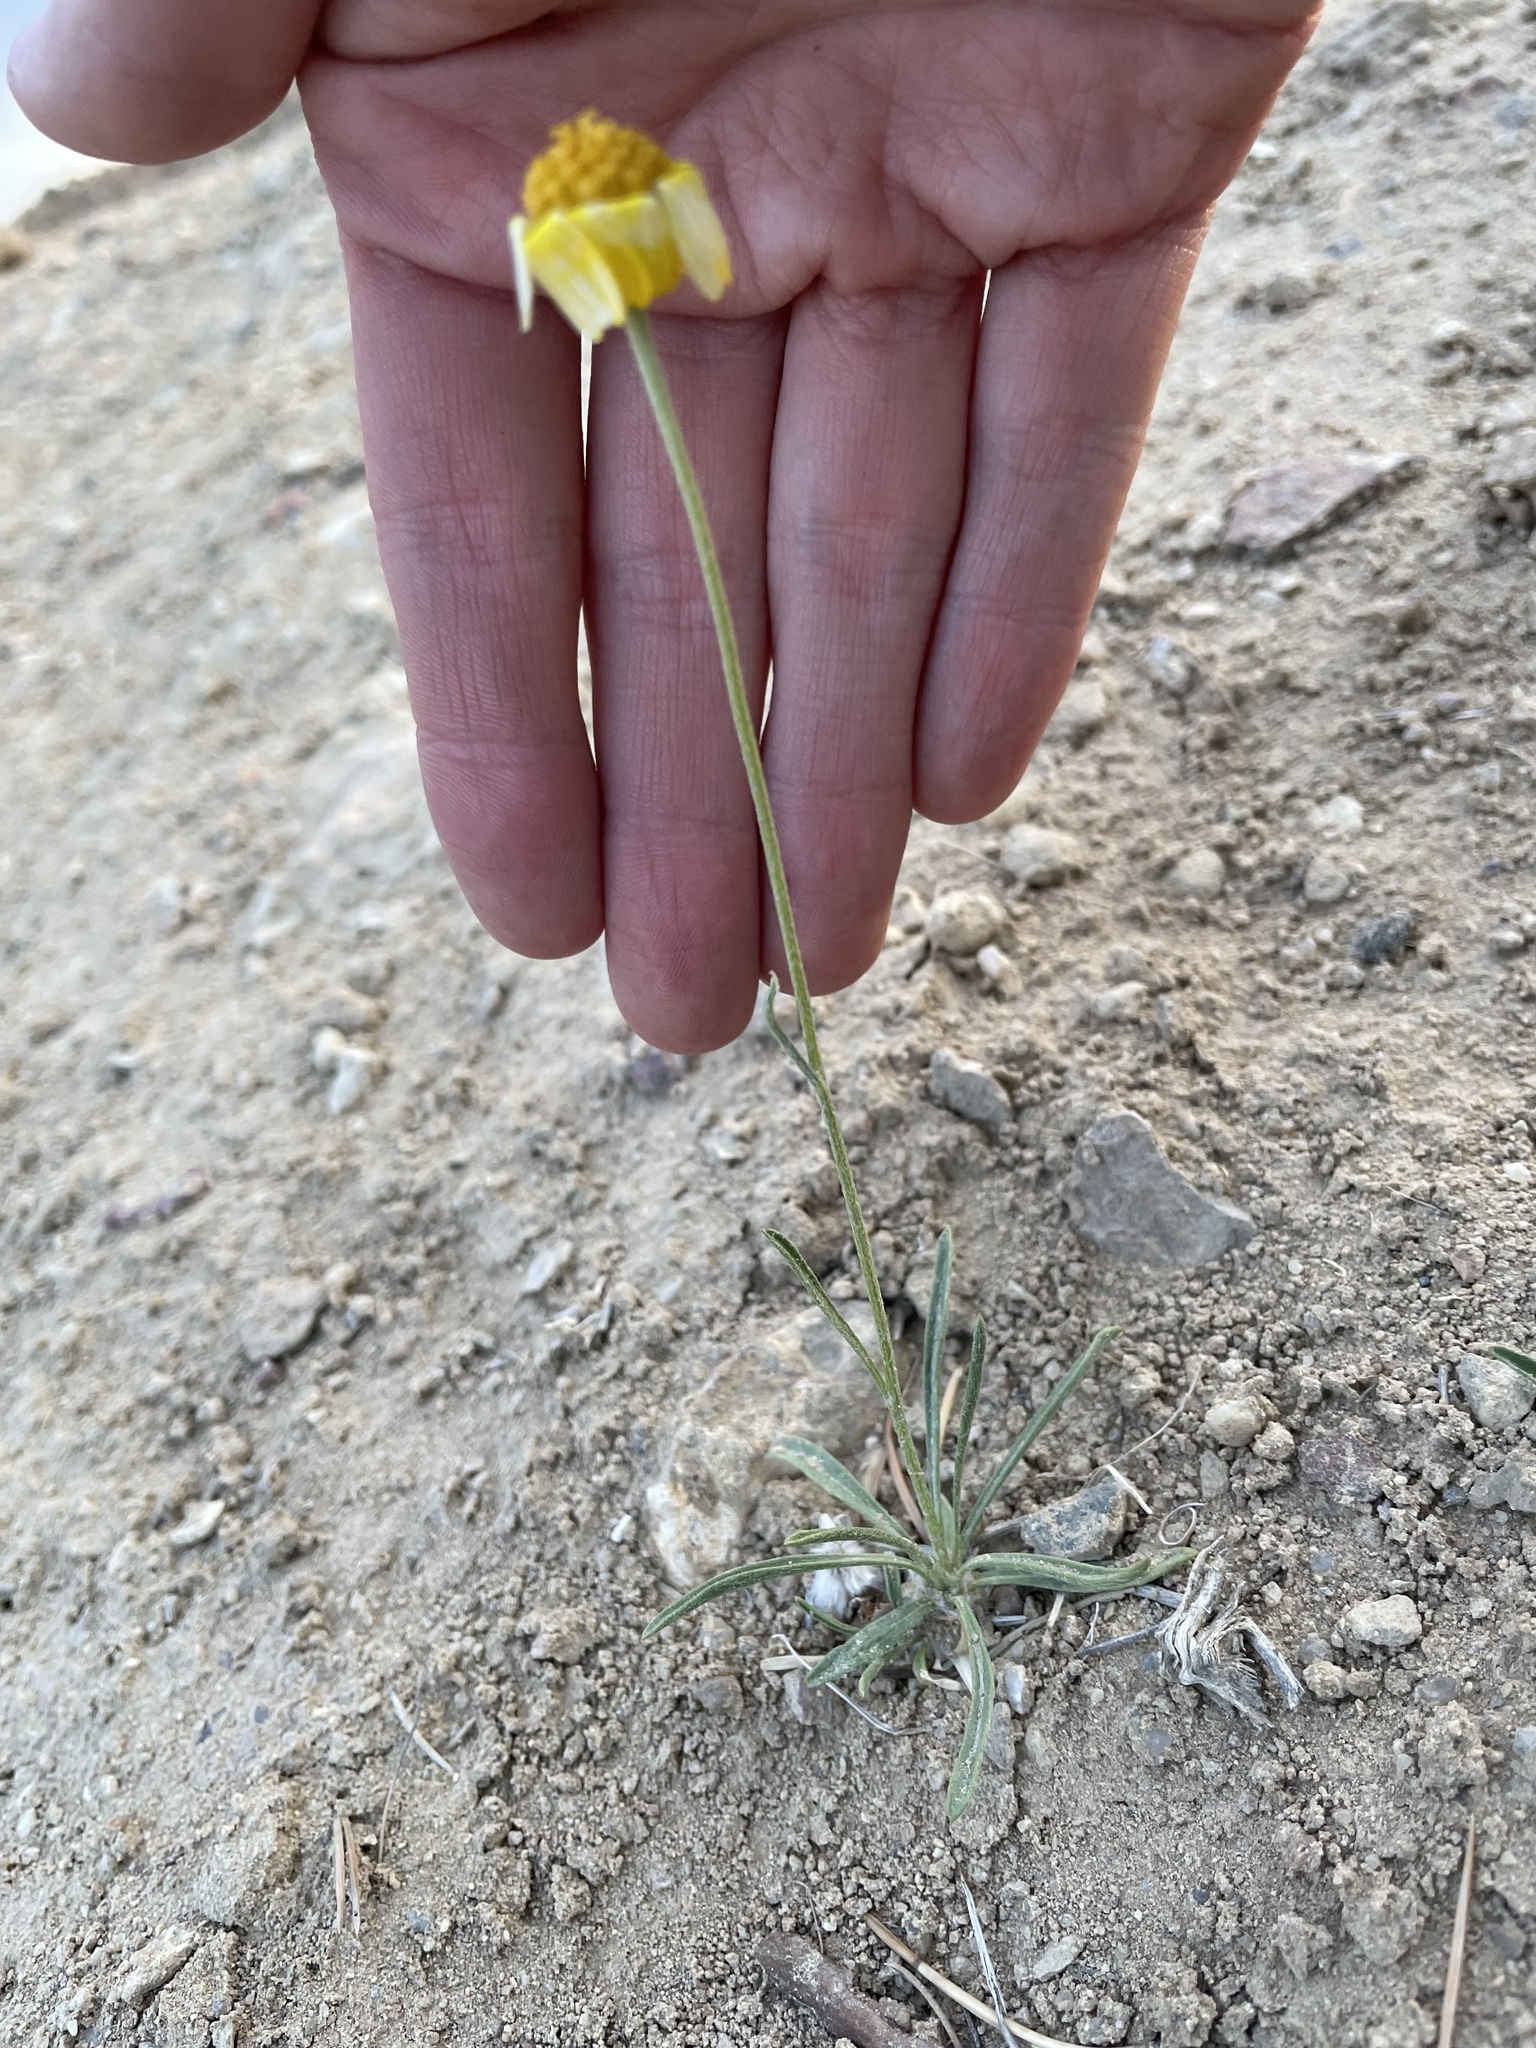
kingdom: Plantae
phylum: Tracheophyta
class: Magnoliopsida
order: Asterales
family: Asteraceae
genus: Tetraneuris
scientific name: Tetraneuris ivesiana
